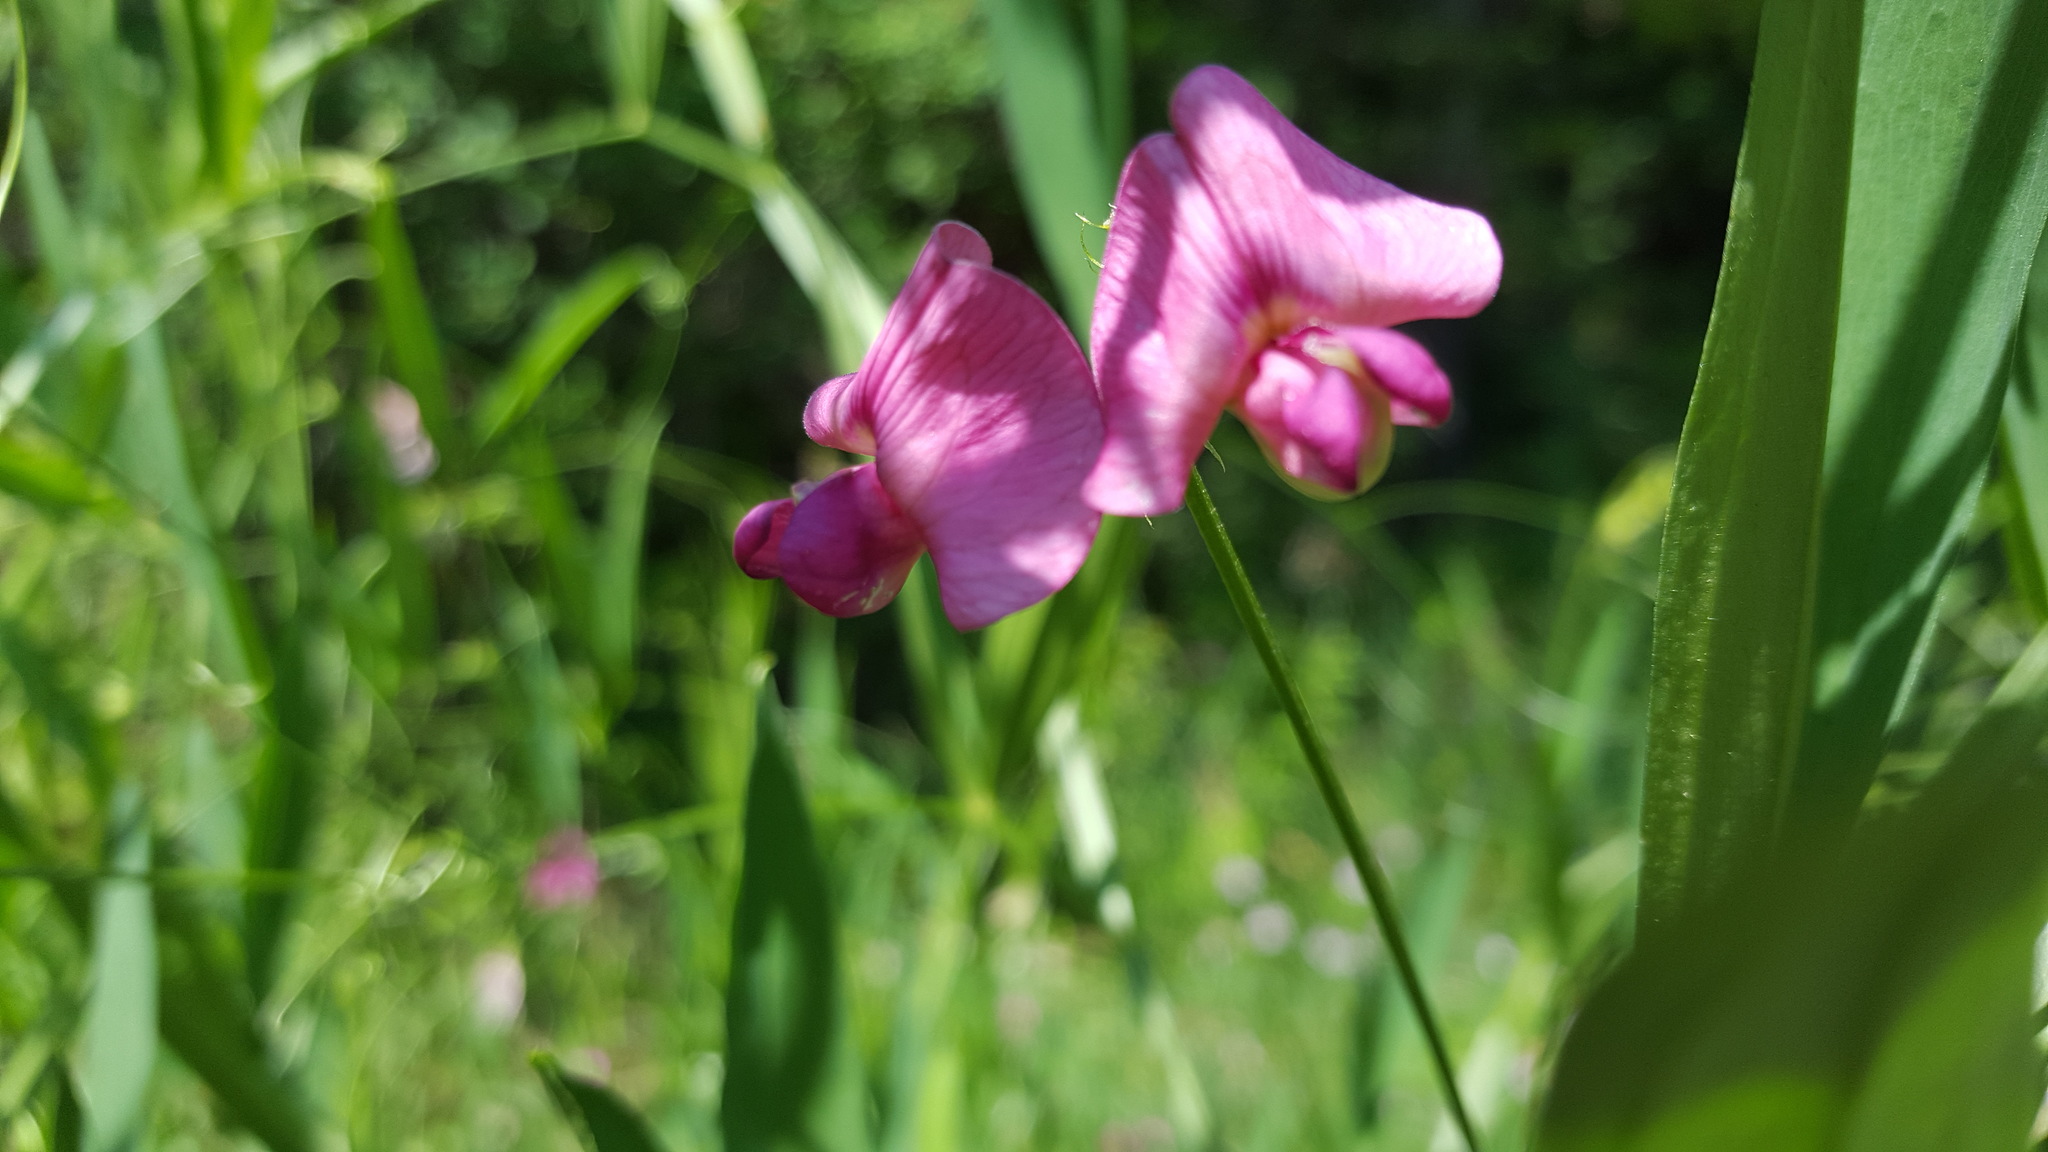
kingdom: Plantae
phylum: Tracheophyta
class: Magnoliopsida
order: Fabales
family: Fabaceae
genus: Lathyrus
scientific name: Lathyrus latifolius
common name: Perennial pea
